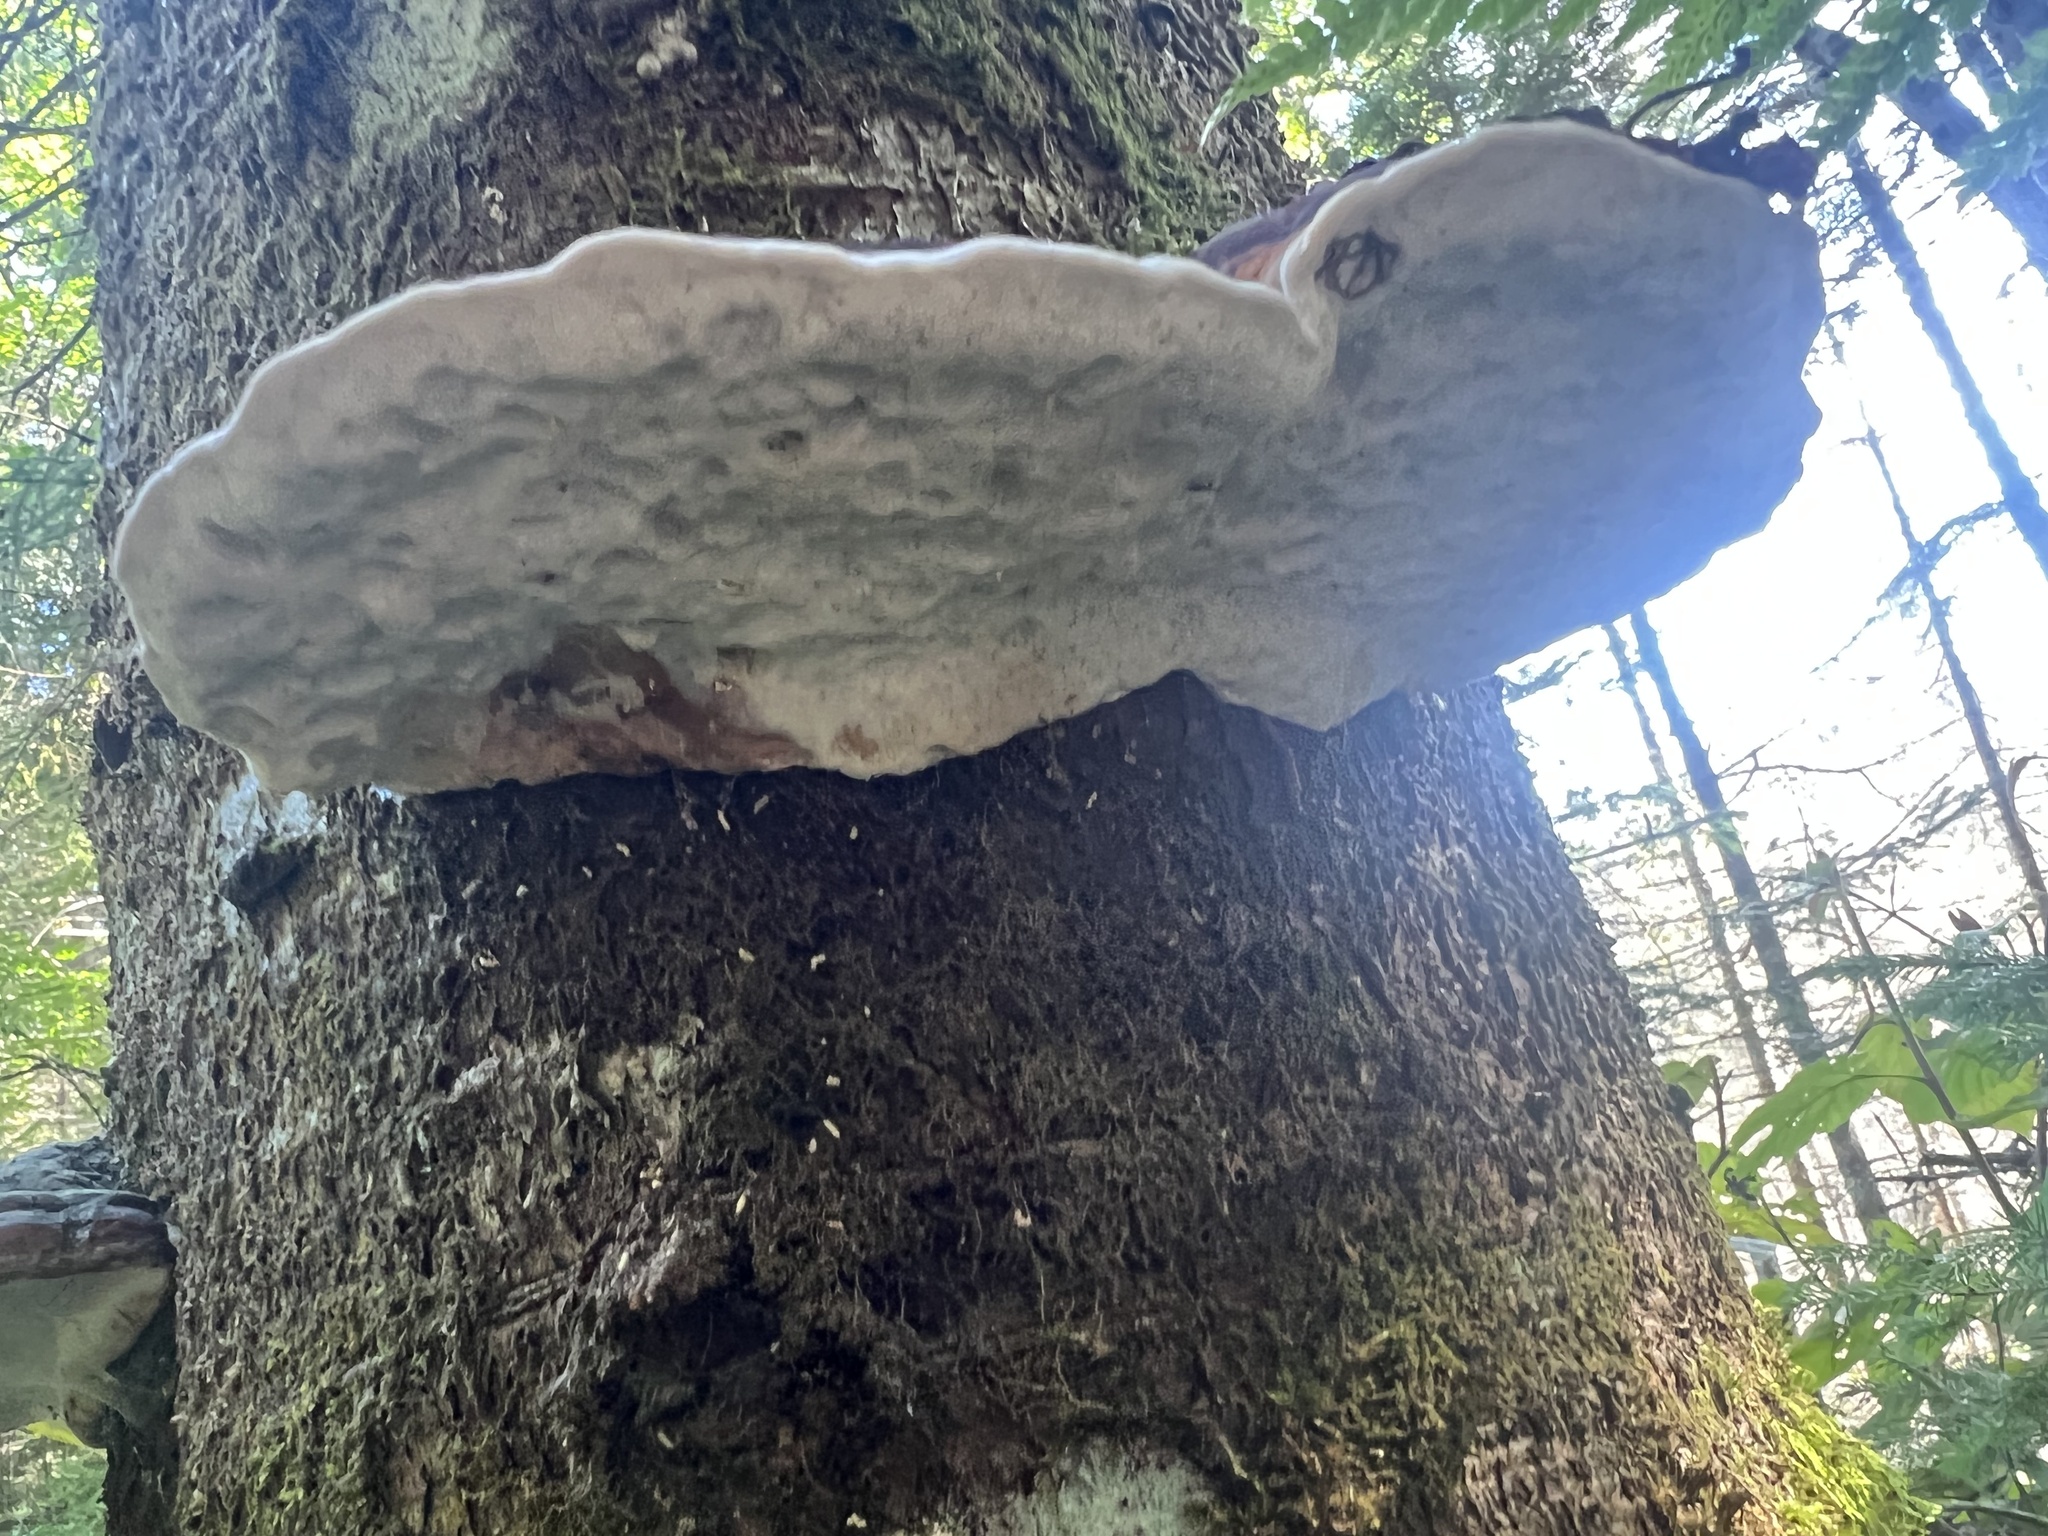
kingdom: Fungi
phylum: Basidiomycota
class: Agaricomycetes
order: Polyporales
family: Fomitopsidaceae
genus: Fomitopsis
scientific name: Fomitopsis mounceae
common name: Northern red belt
